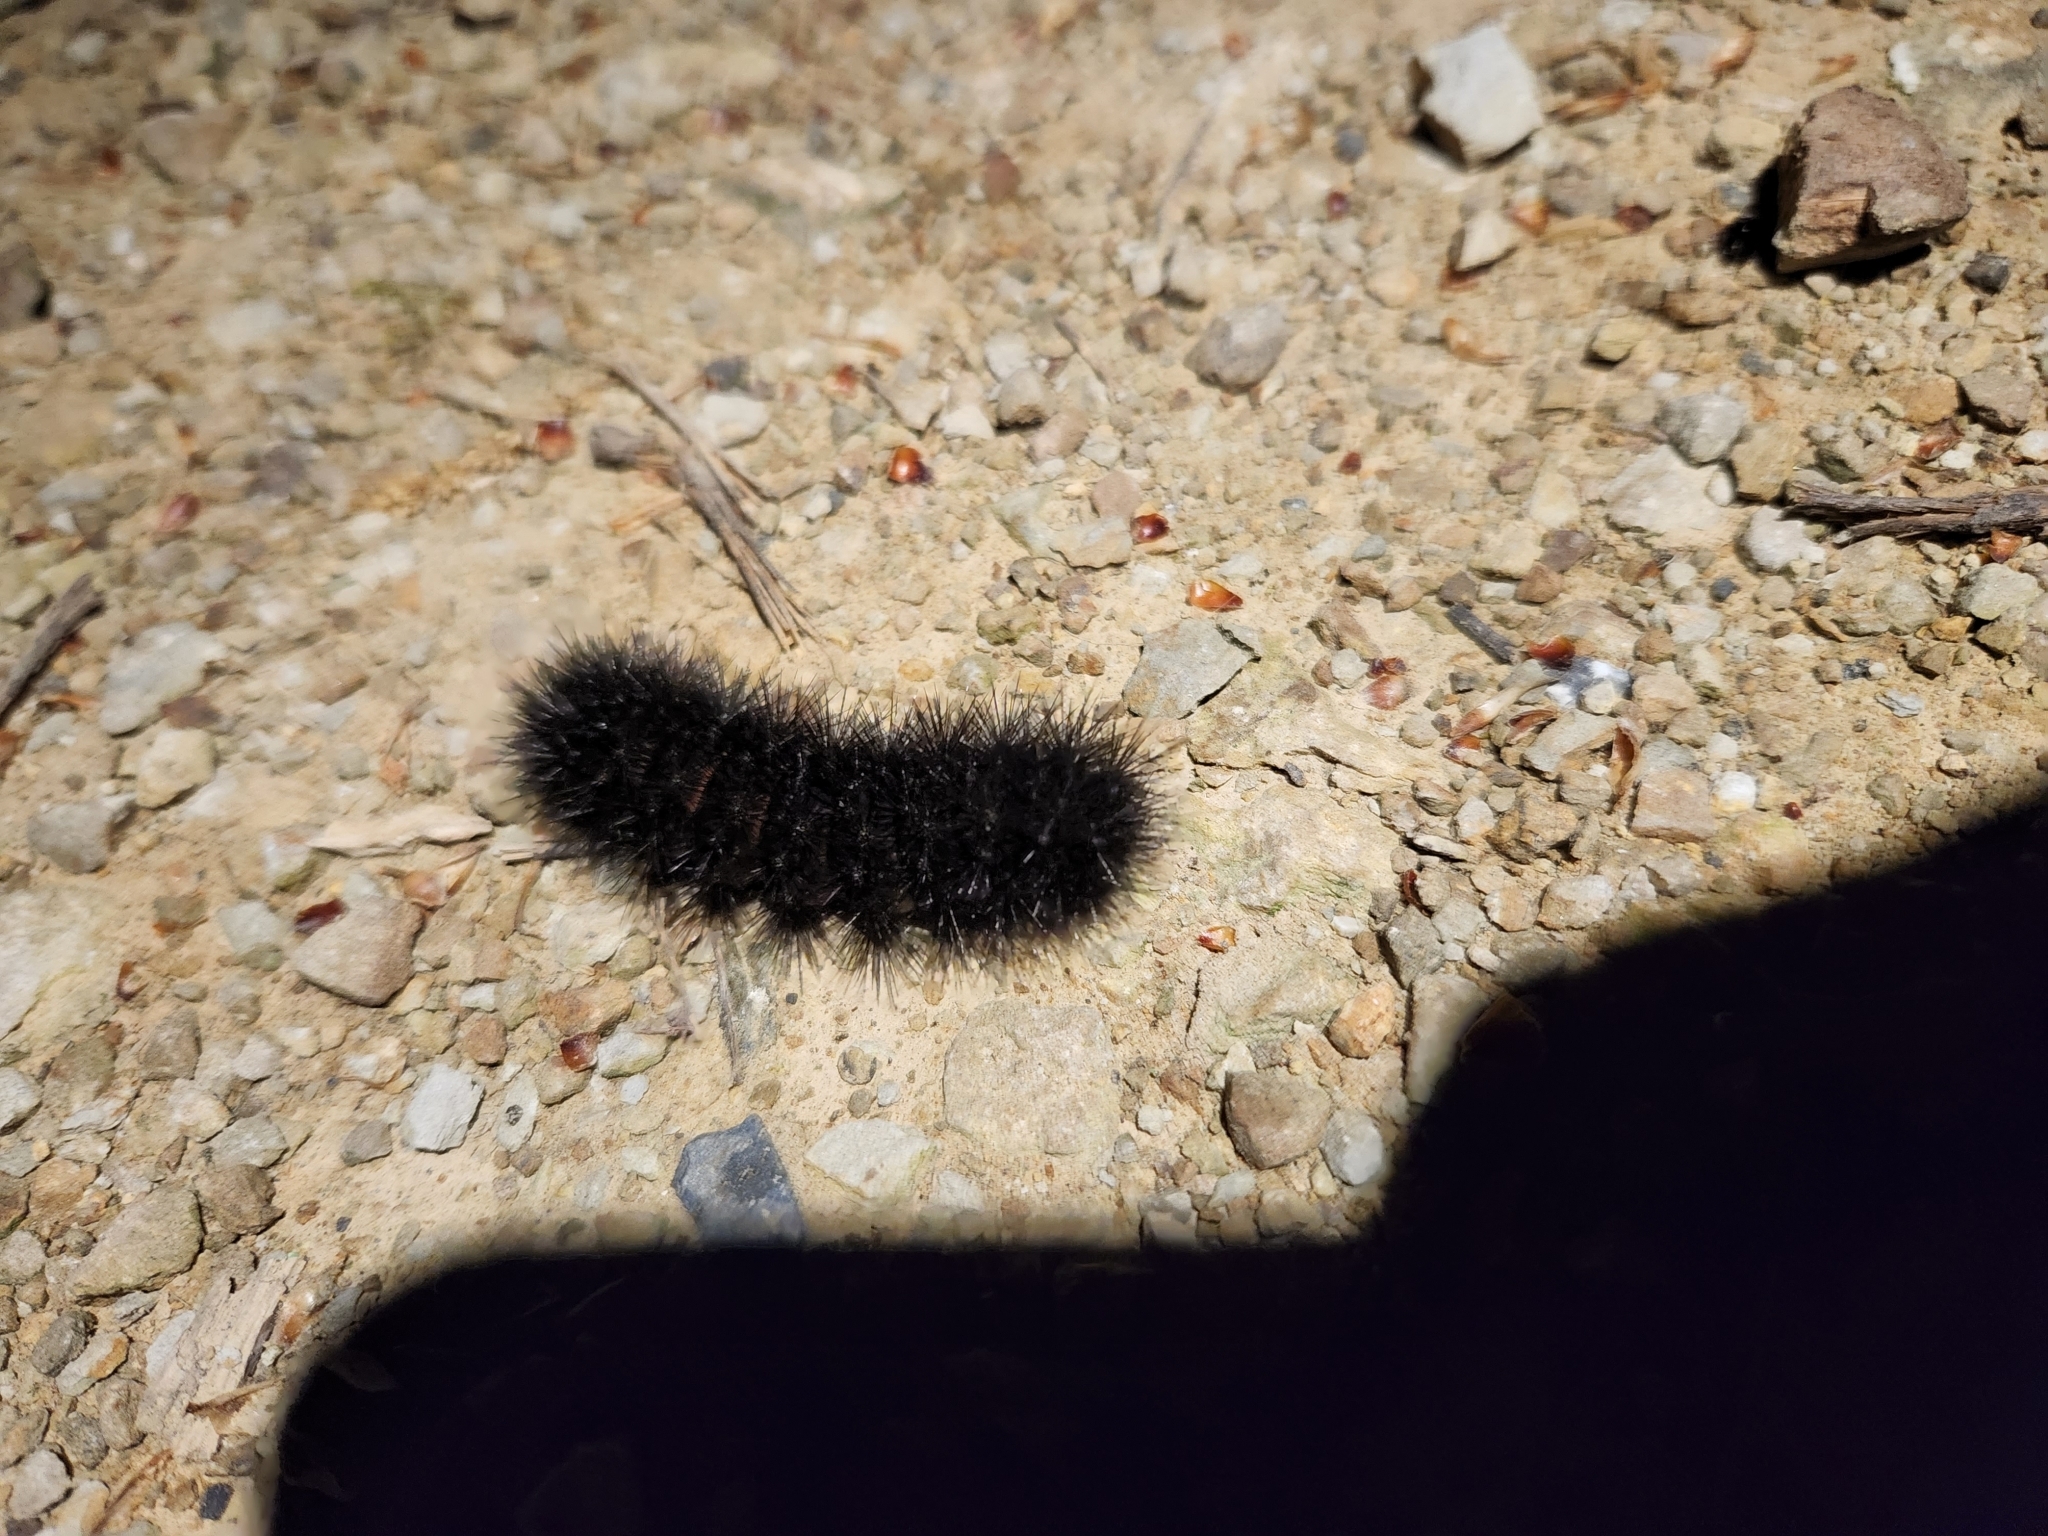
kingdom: Animalia
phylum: Arthropoda
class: Insecta
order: Lepidoptera
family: Erebidae
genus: Hypercompe
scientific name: Hypercompe scribonia
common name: Giant leopard moth
